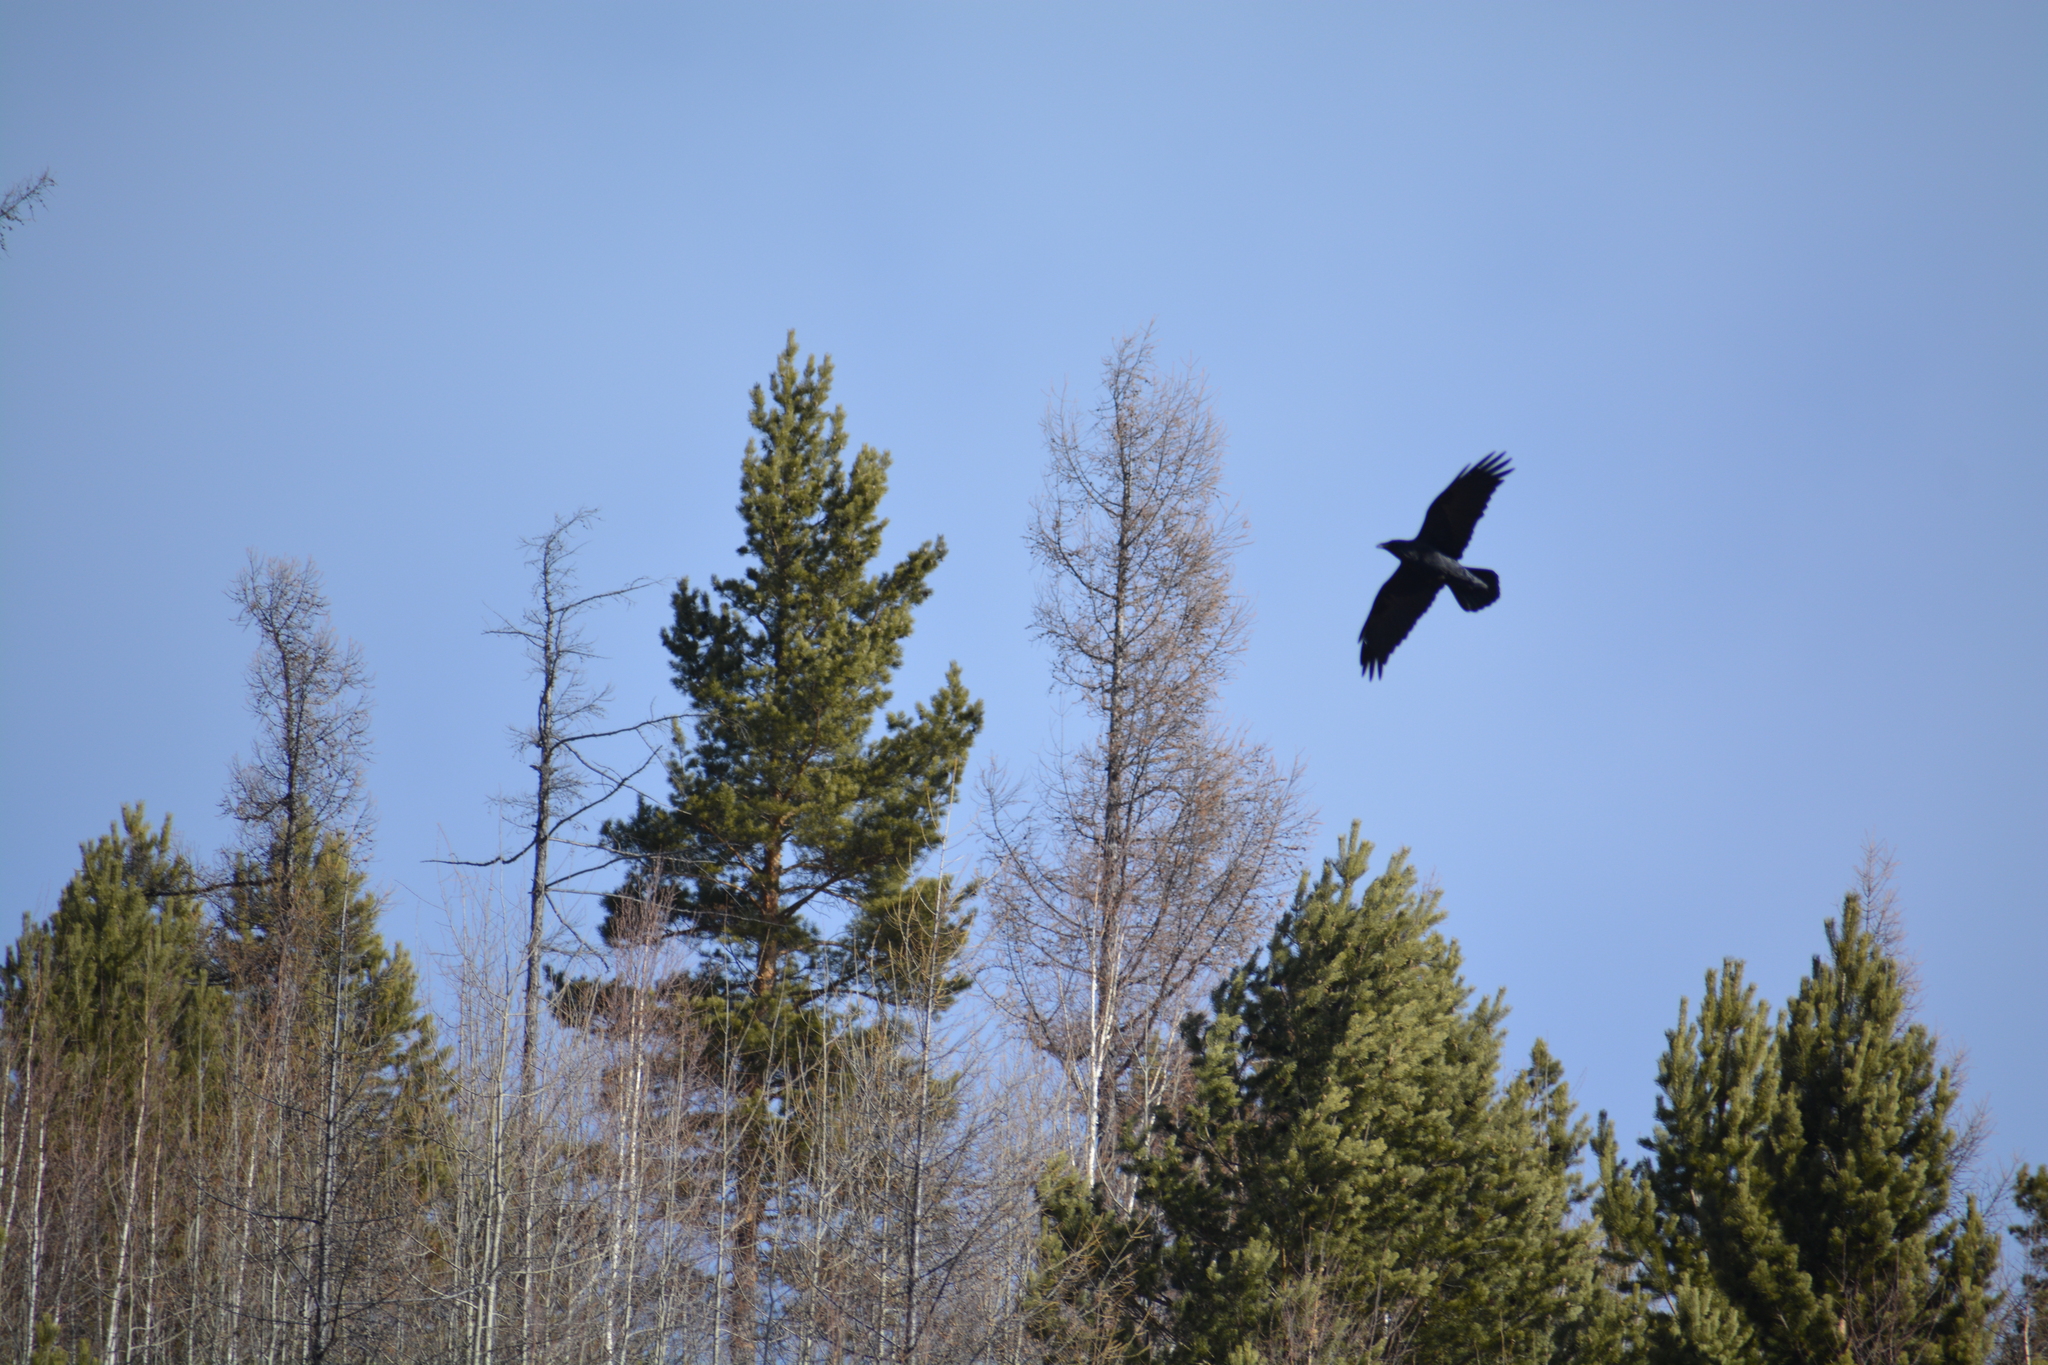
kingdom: Animalia
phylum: Chordata
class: Aves
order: Passeriformes
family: Corvidae
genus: Corvus
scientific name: Corvus corax
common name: Common raven
